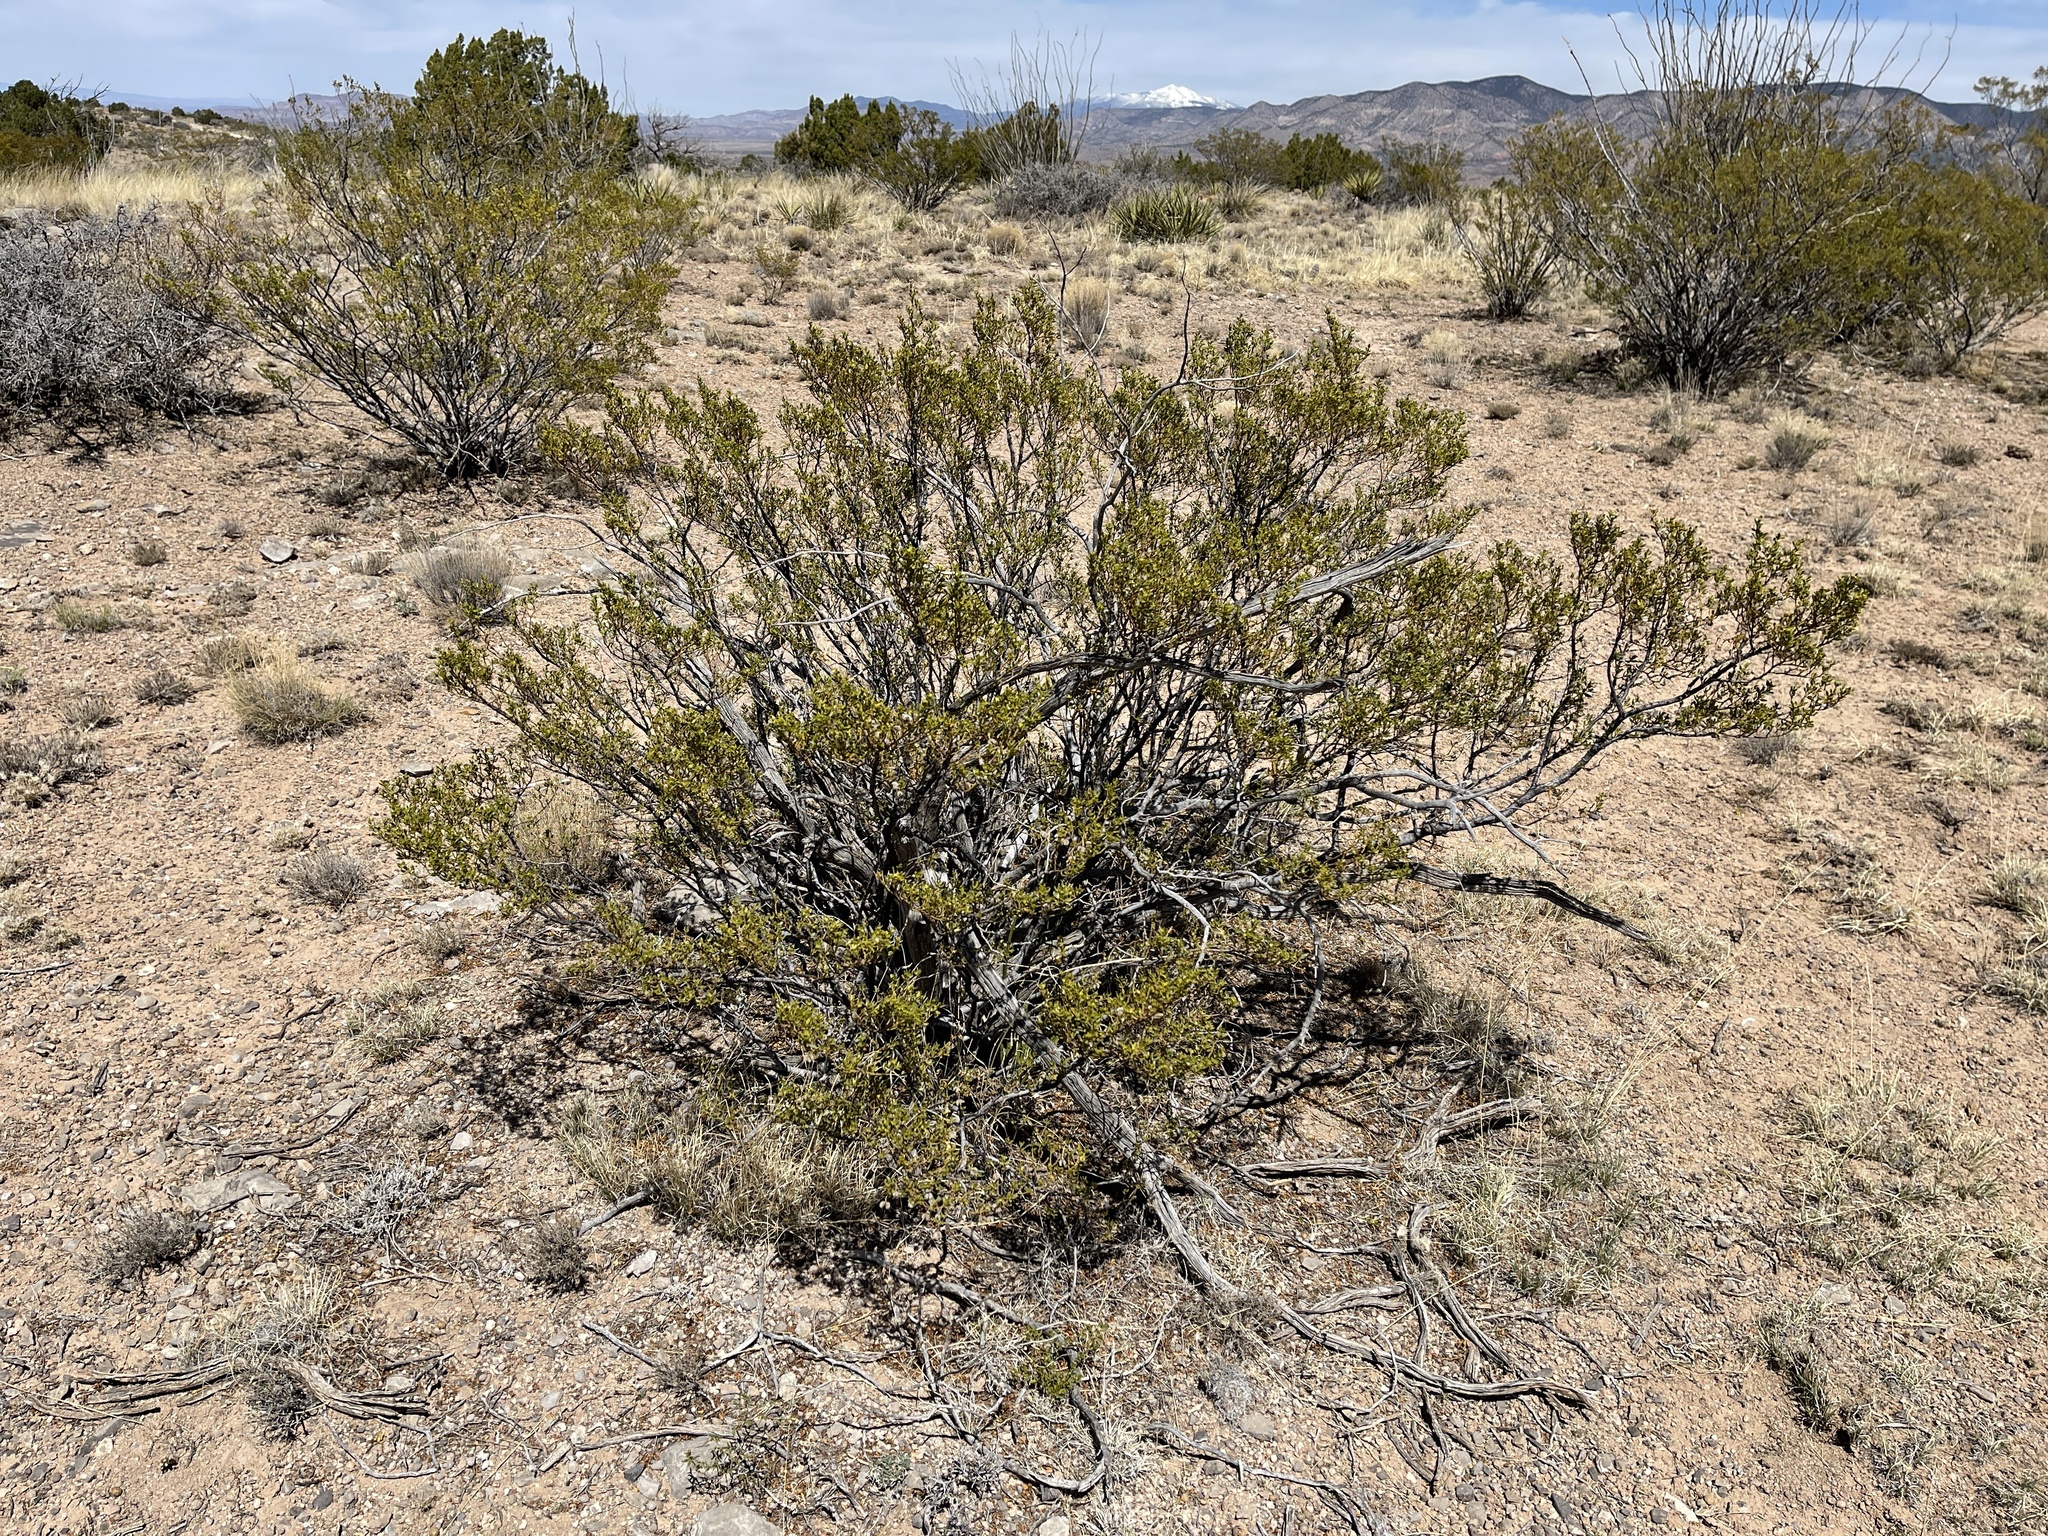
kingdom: Plantae
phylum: Tracheophyta
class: Magnoliopsida
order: Zygophyllales
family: Zygophyllaceae
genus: Larrea
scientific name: Larrea tridentata
